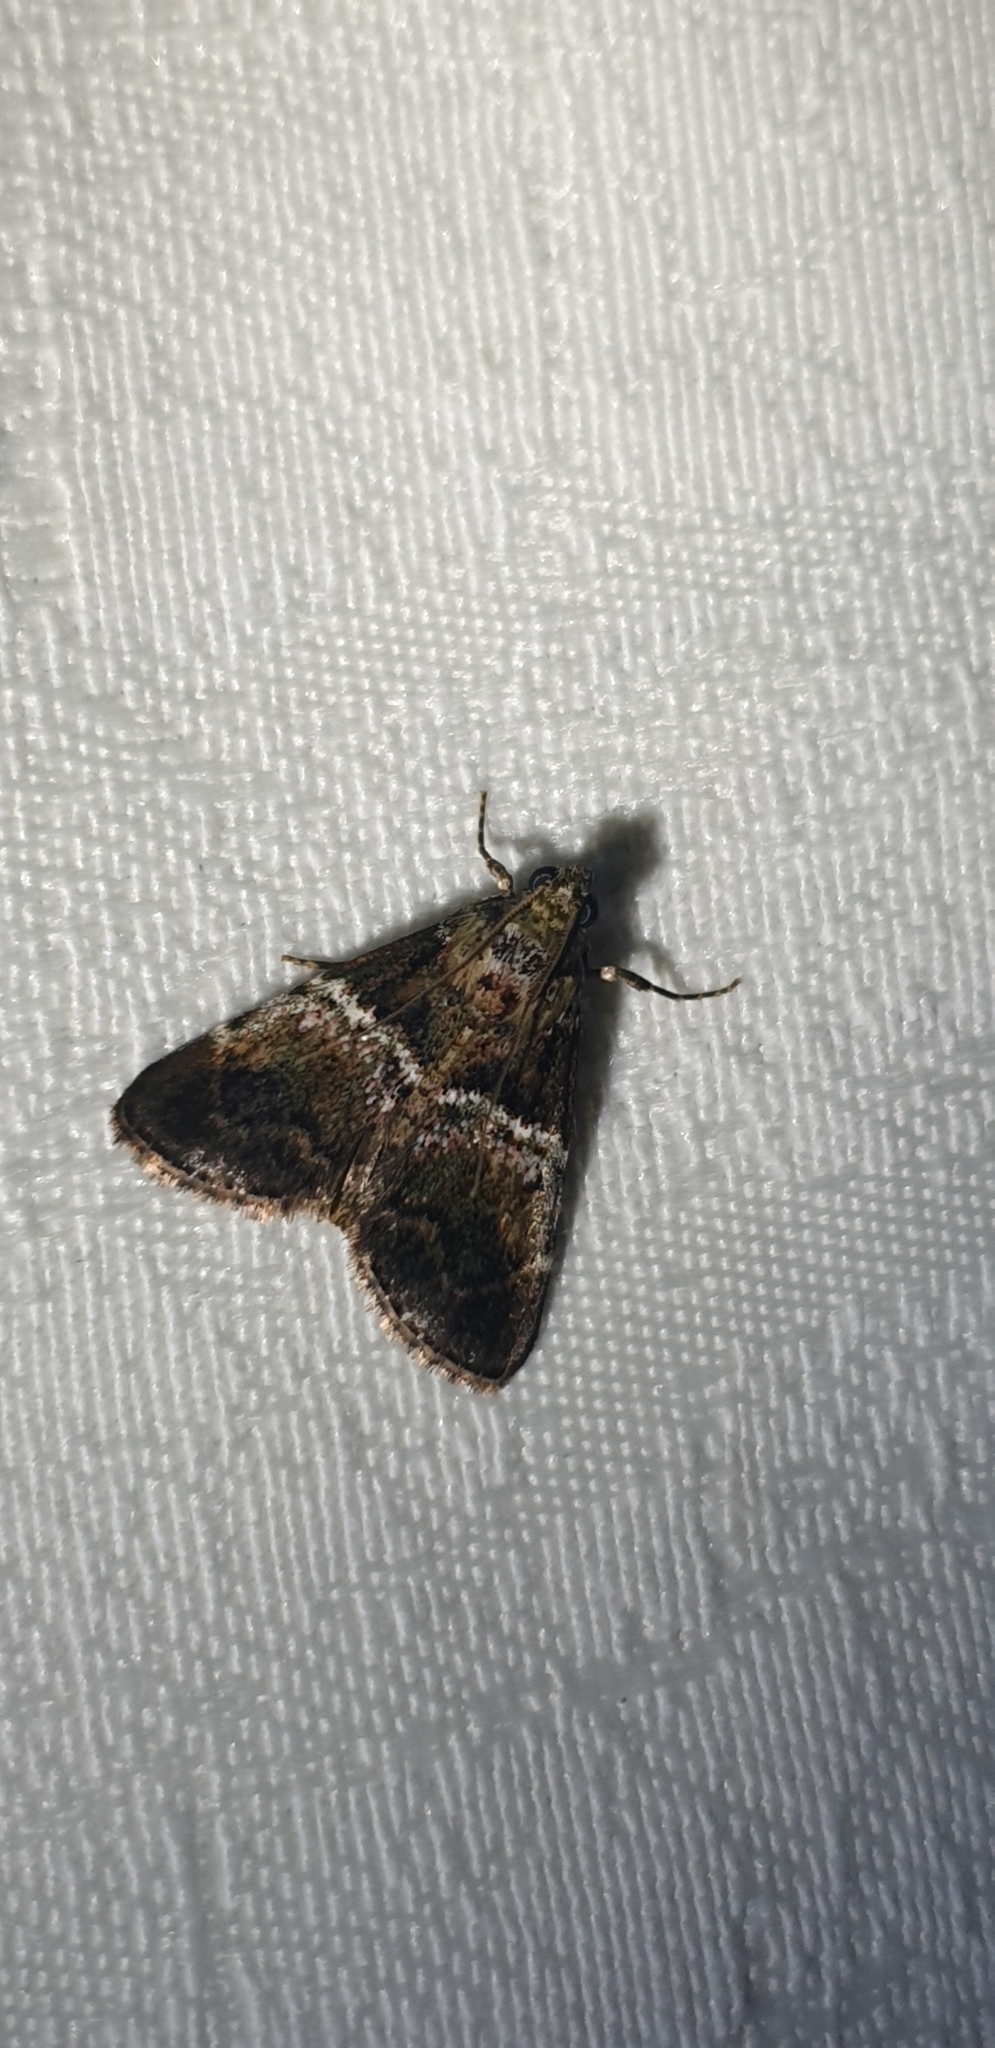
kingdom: Animalia
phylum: Arthropoda
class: Insecta
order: Lepidoptera
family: Pyralidae
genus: Orthaga
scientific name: Orthaga atribasalis
